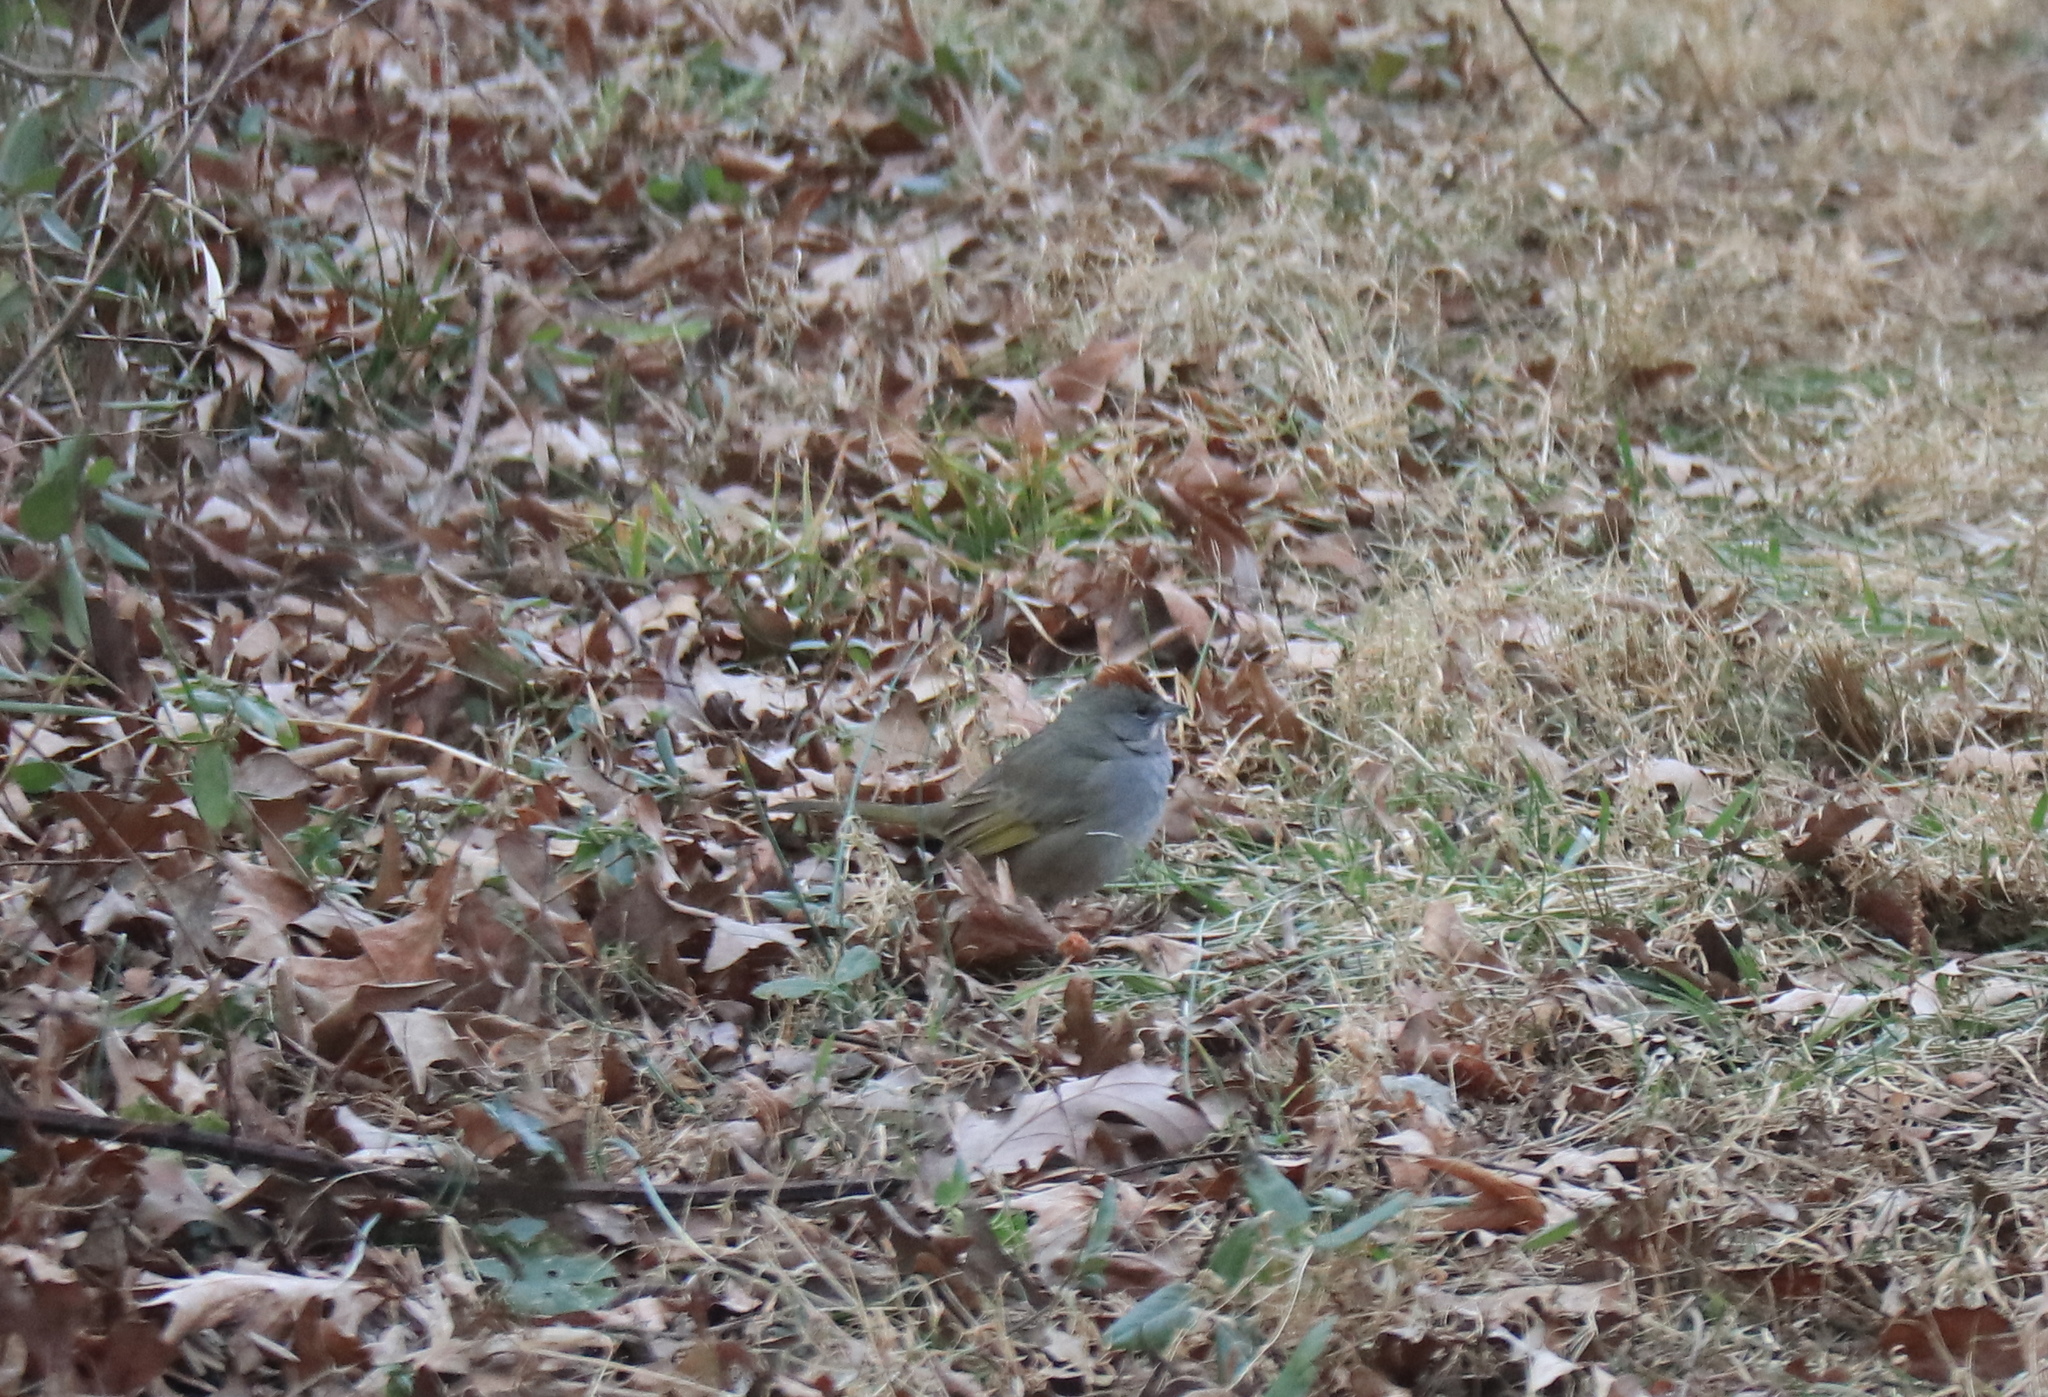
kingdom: Animalia
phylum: Chordata
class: Aves
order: Passeriformes
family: Passerellidae
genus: Pipilo
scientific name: Pipilo chlorurus
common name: Green-tailed towhee
